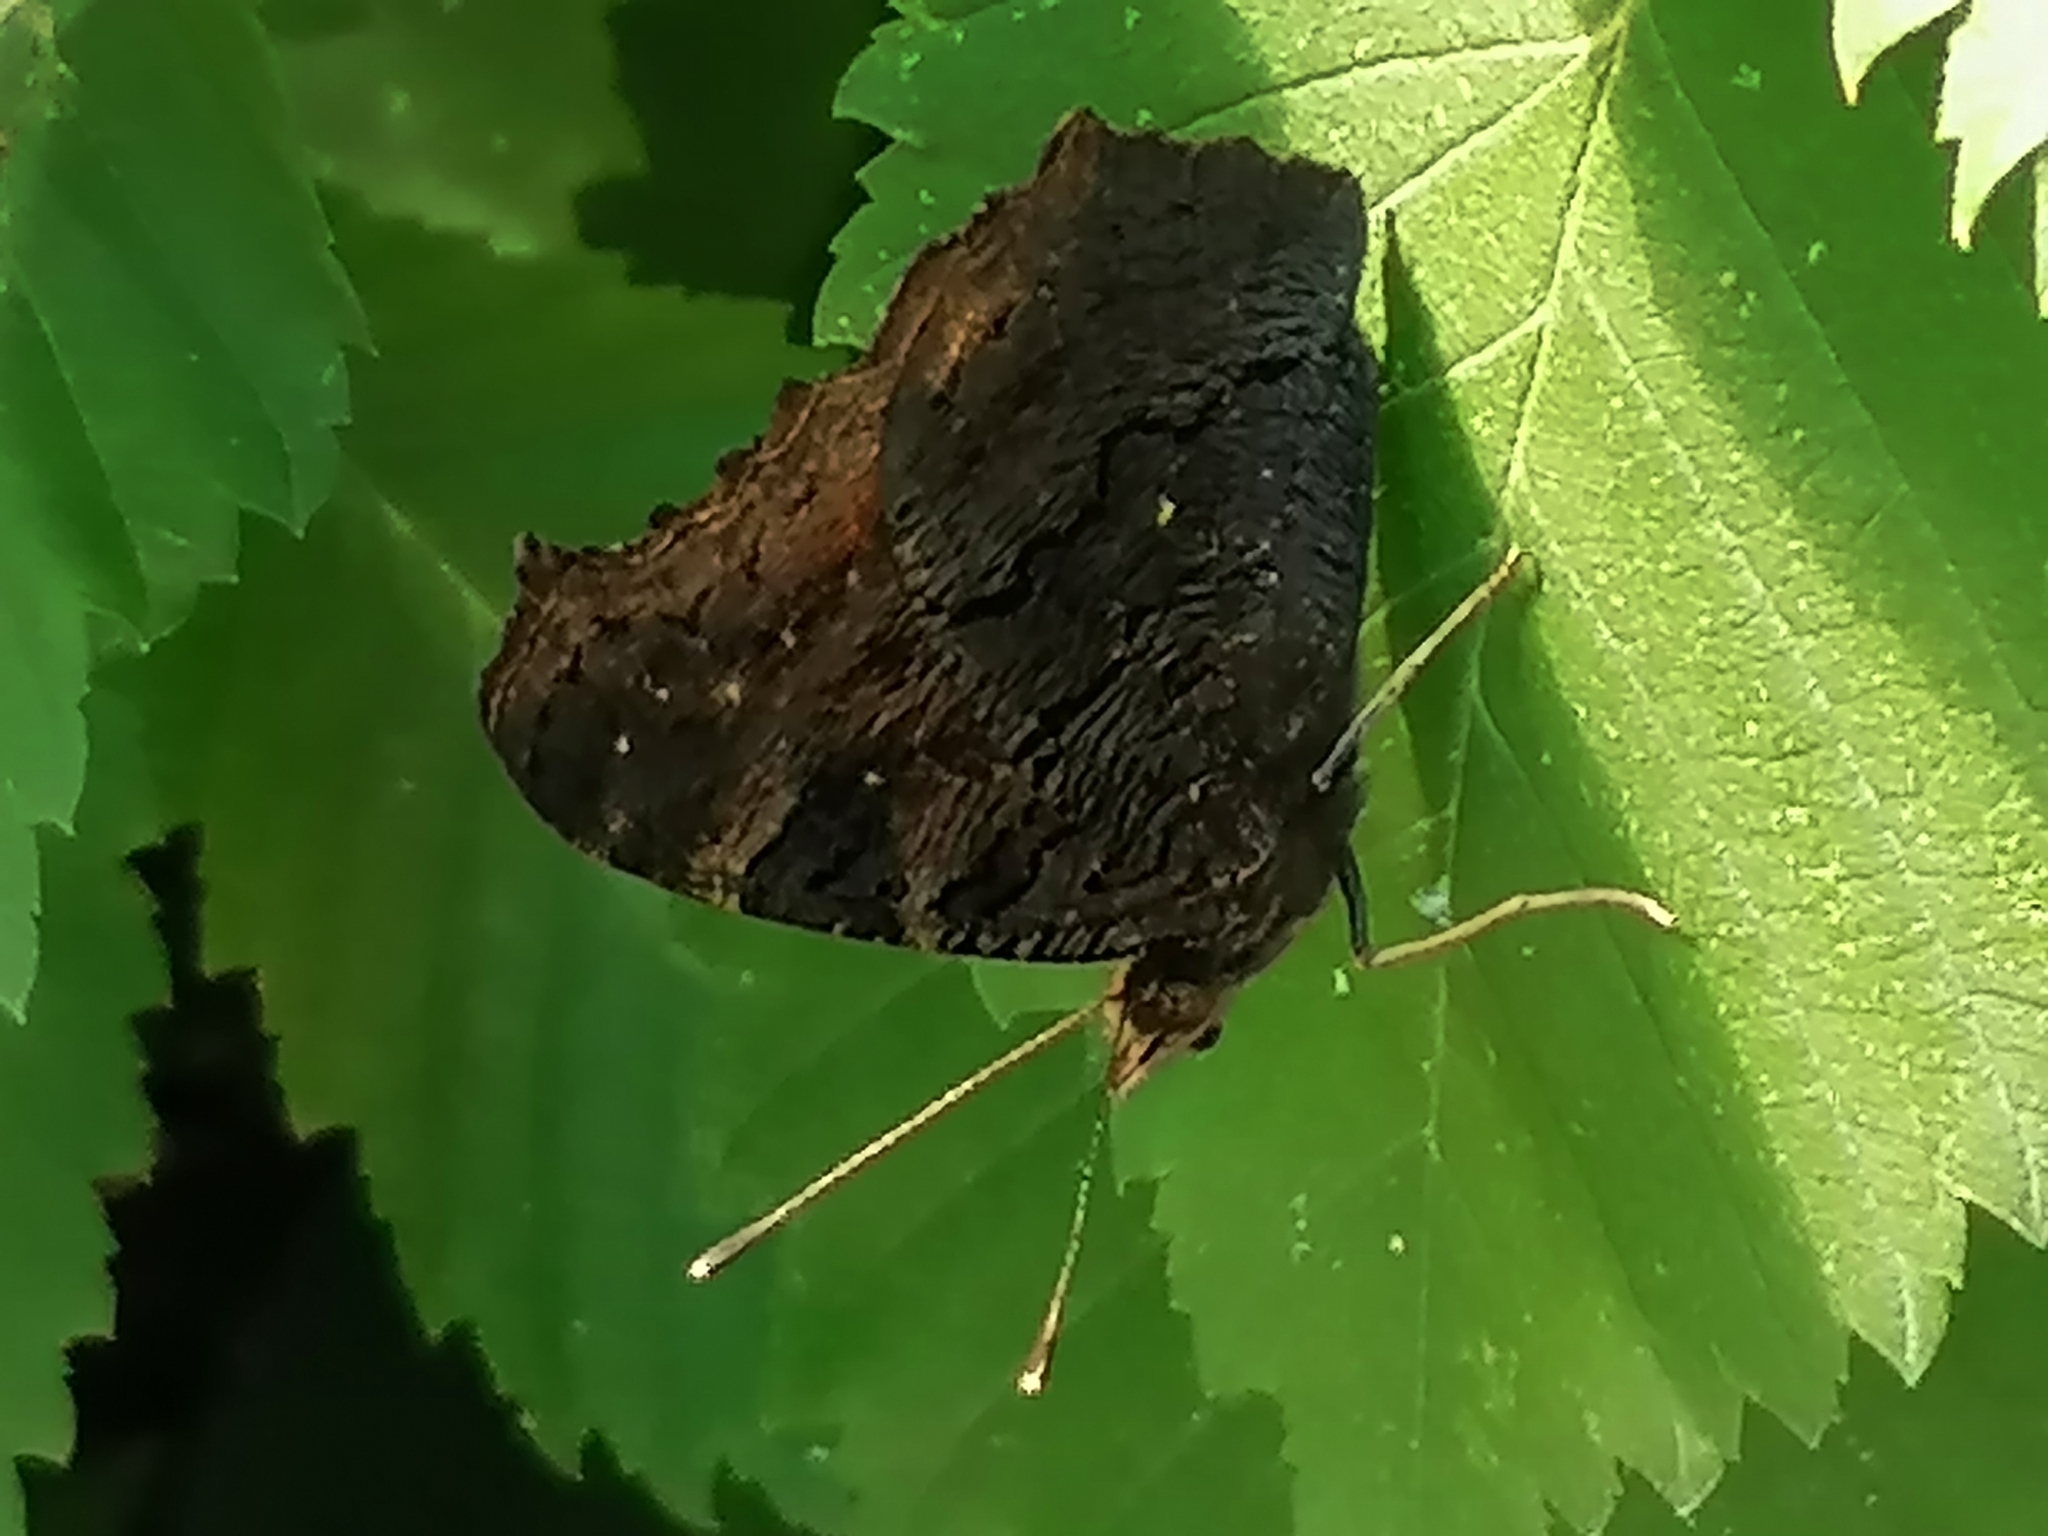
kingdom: Animalia
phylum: Arthropoda
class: Insecta
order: Lepidoptera
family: Nymphalidae
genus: Aglais
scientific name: Aglais io
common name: Peacock
